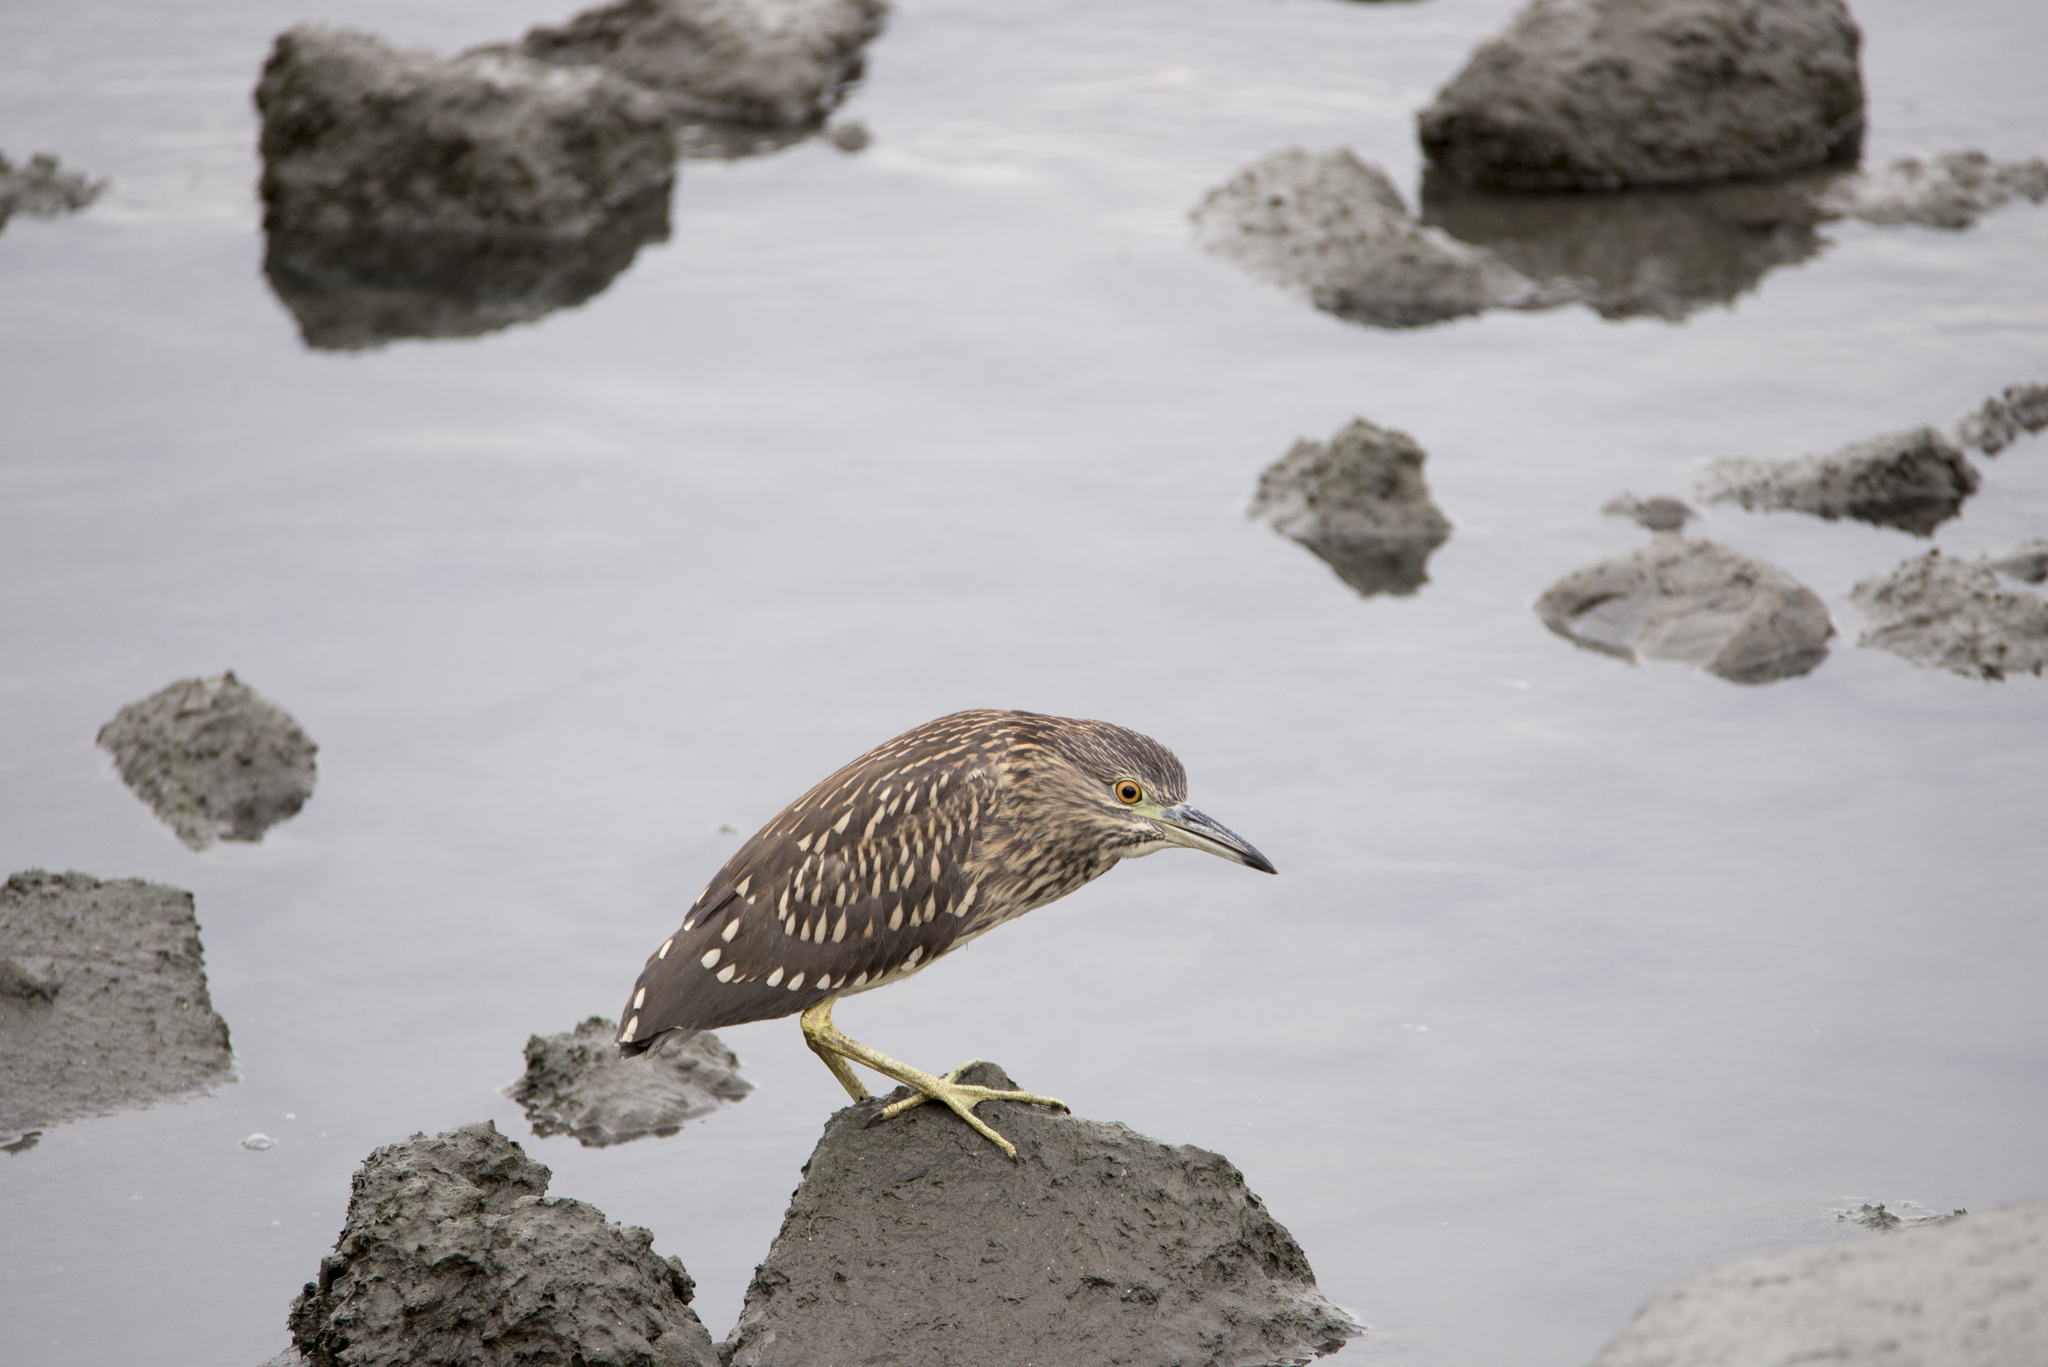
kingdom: Animalia
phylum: Chordata
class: Aves
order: Pelecaniformes
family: Ardeidae
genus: Nycticorax
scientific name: Nycticorax nycticorax
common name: Black-crowned night heron
